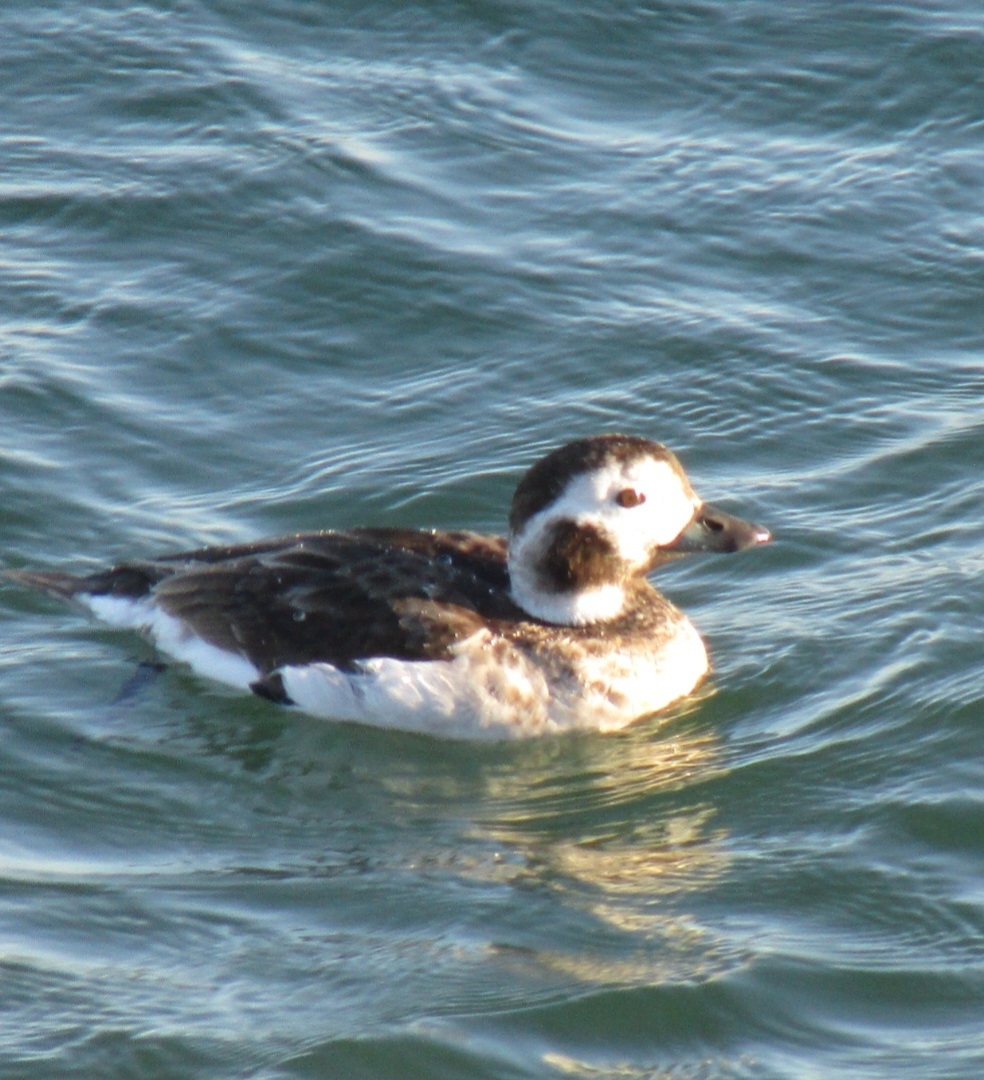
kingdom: Animalia
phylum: Chordata
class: Aves
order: Anseriformes
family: Anatidae
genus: Clangula
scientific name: Clangula hyemalis
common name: Long-tailed duck
